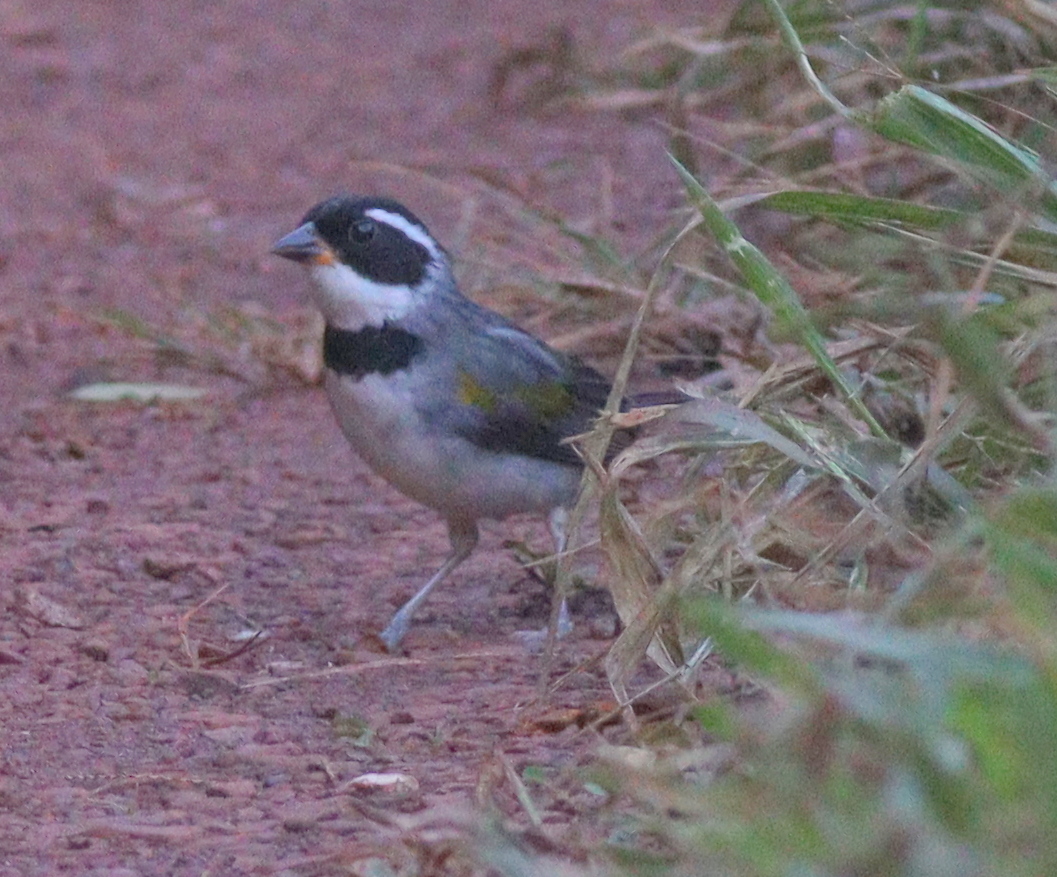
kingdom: Animalia
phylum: Chordata
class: Aves
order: Passeriformes
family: Passerellidae
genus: Arremon
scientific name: Arremon flavirostris
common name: Saffron-billed sparrow
